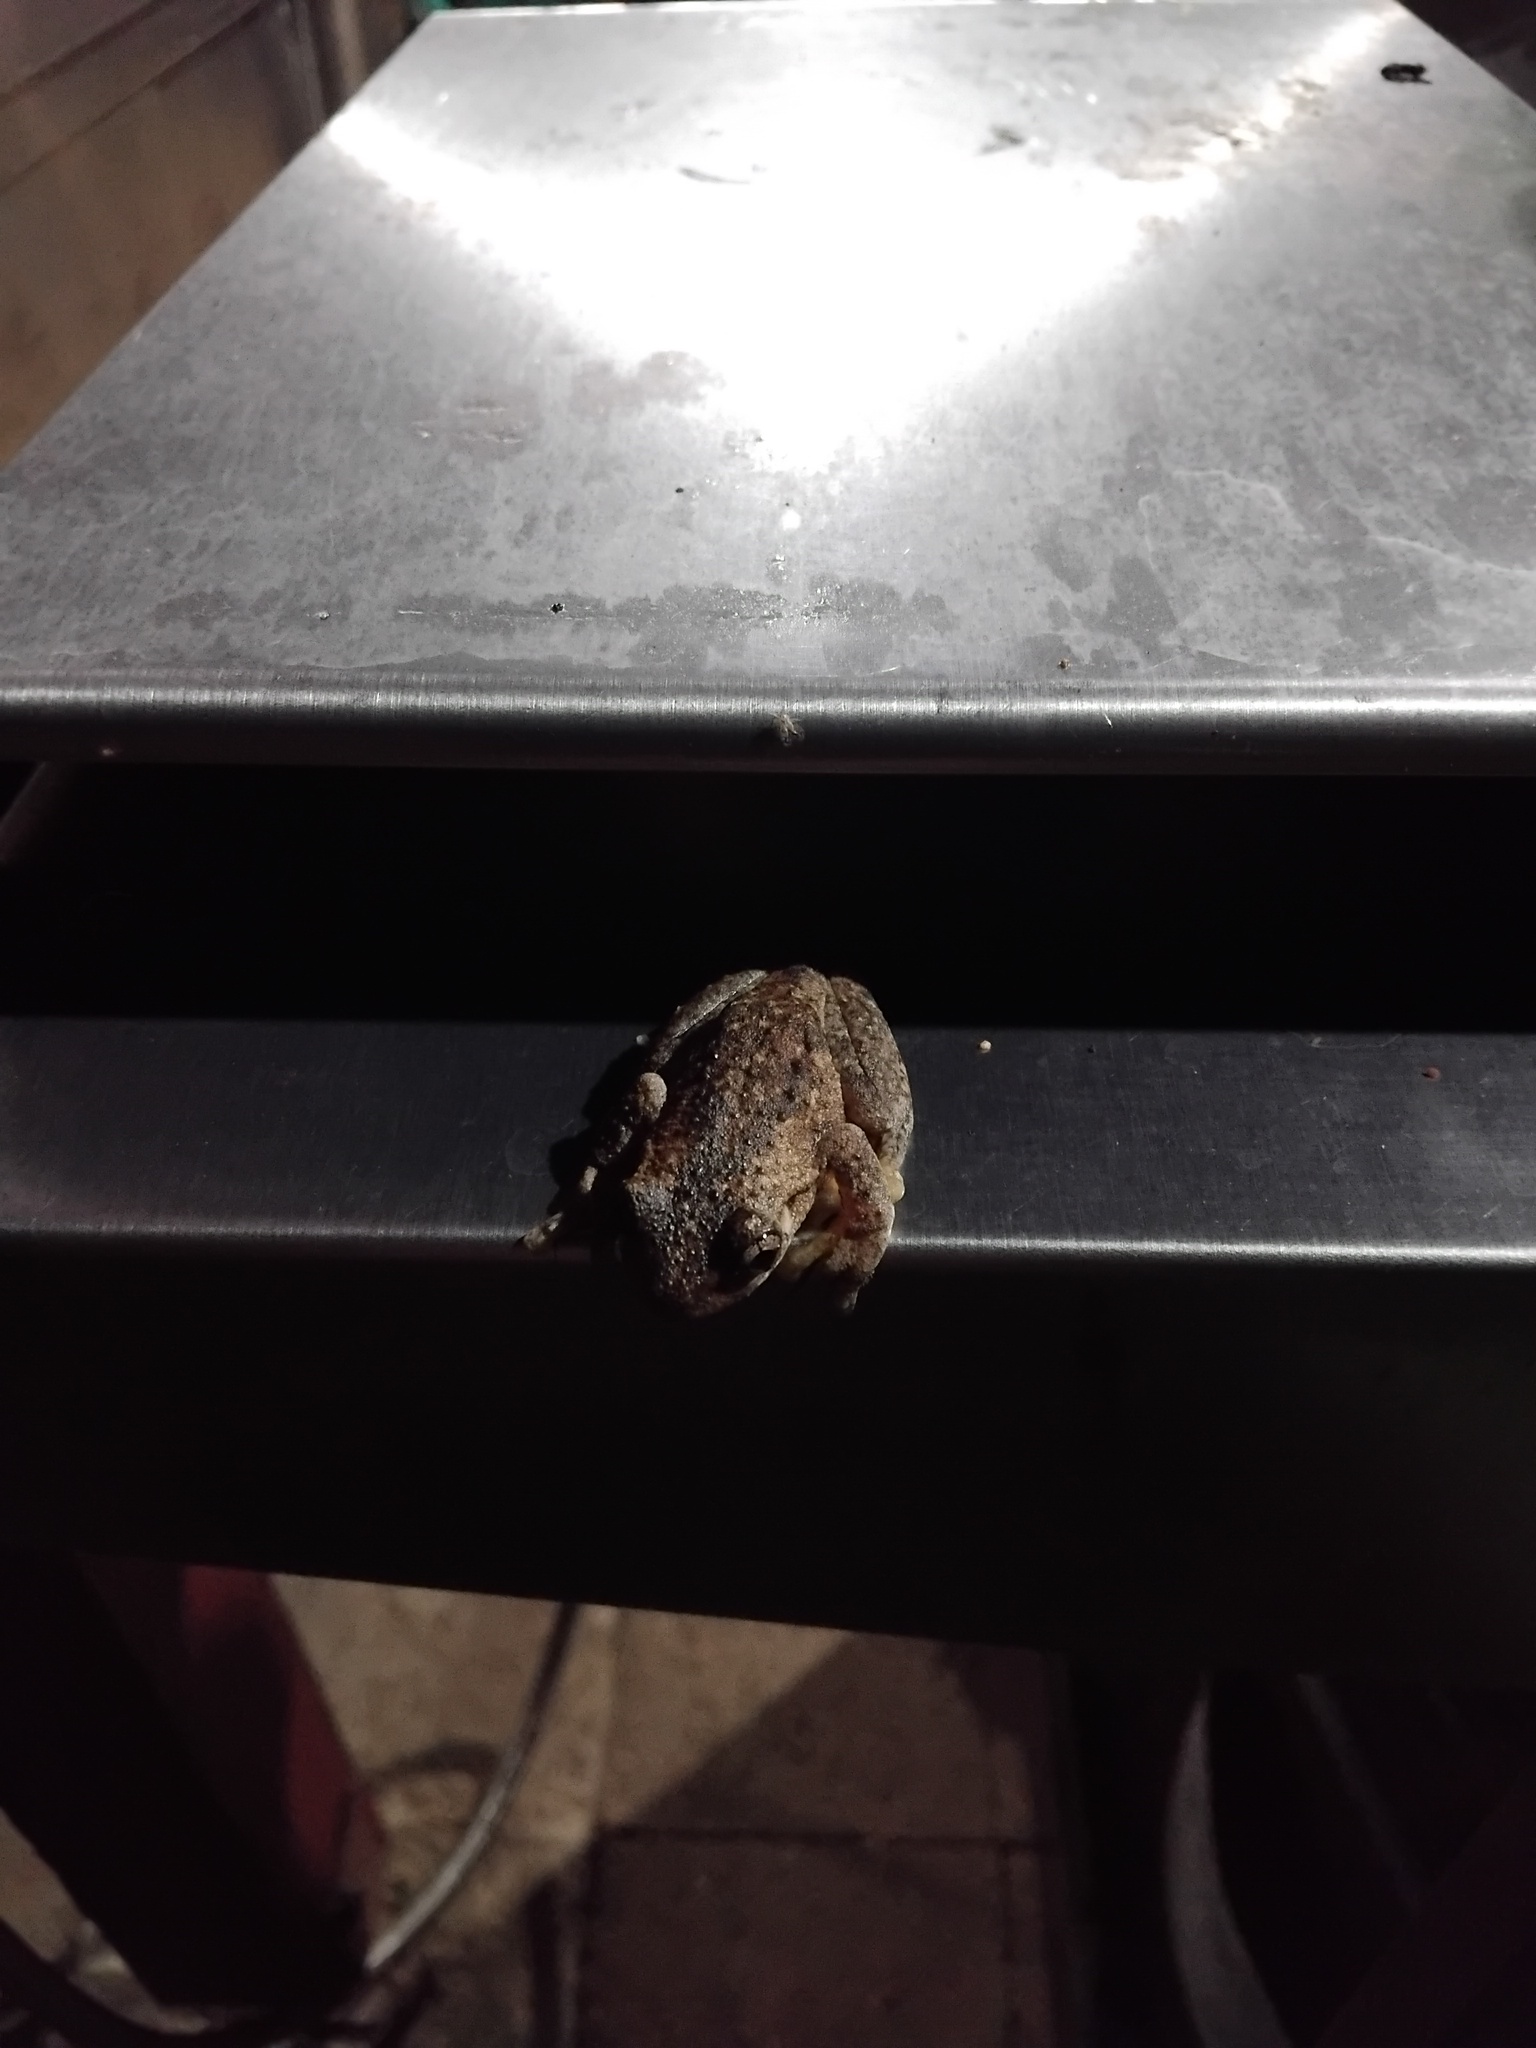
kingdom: Animalia
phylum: Chordata
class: Amphibia
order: Anura
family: Pelodryadidae
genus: Litoria
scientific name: Litoria peronii
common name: Emerald spotted treefrog
